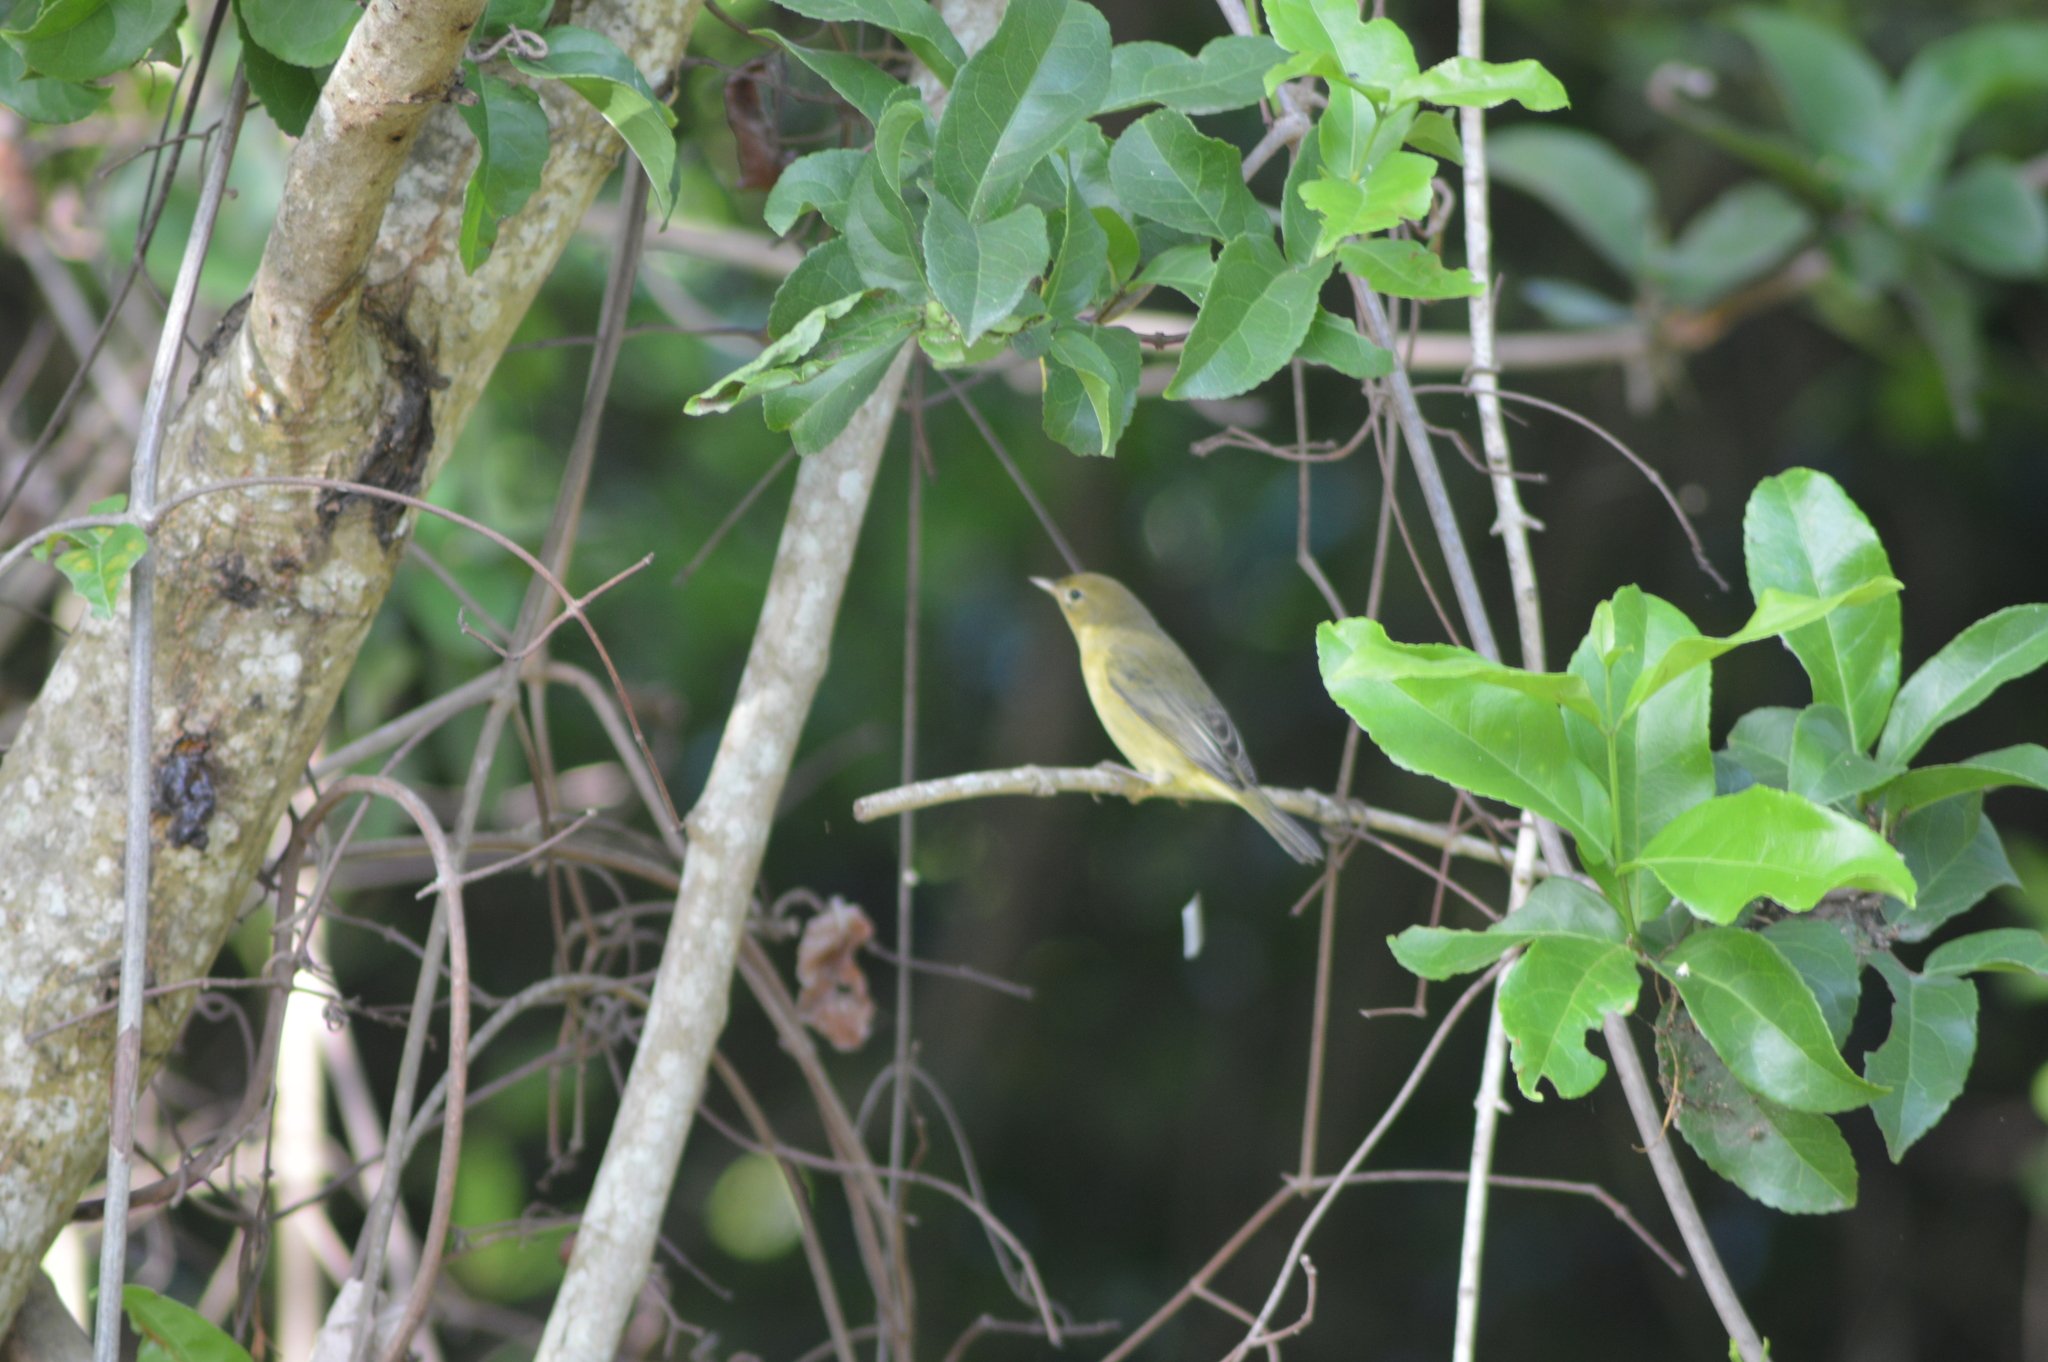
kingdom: Animalia
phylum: Chordata
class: Aves
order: Passeriformes
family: Parulidae
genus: Setophaga
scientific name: Setophaga petechia
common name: Yellow warbler
